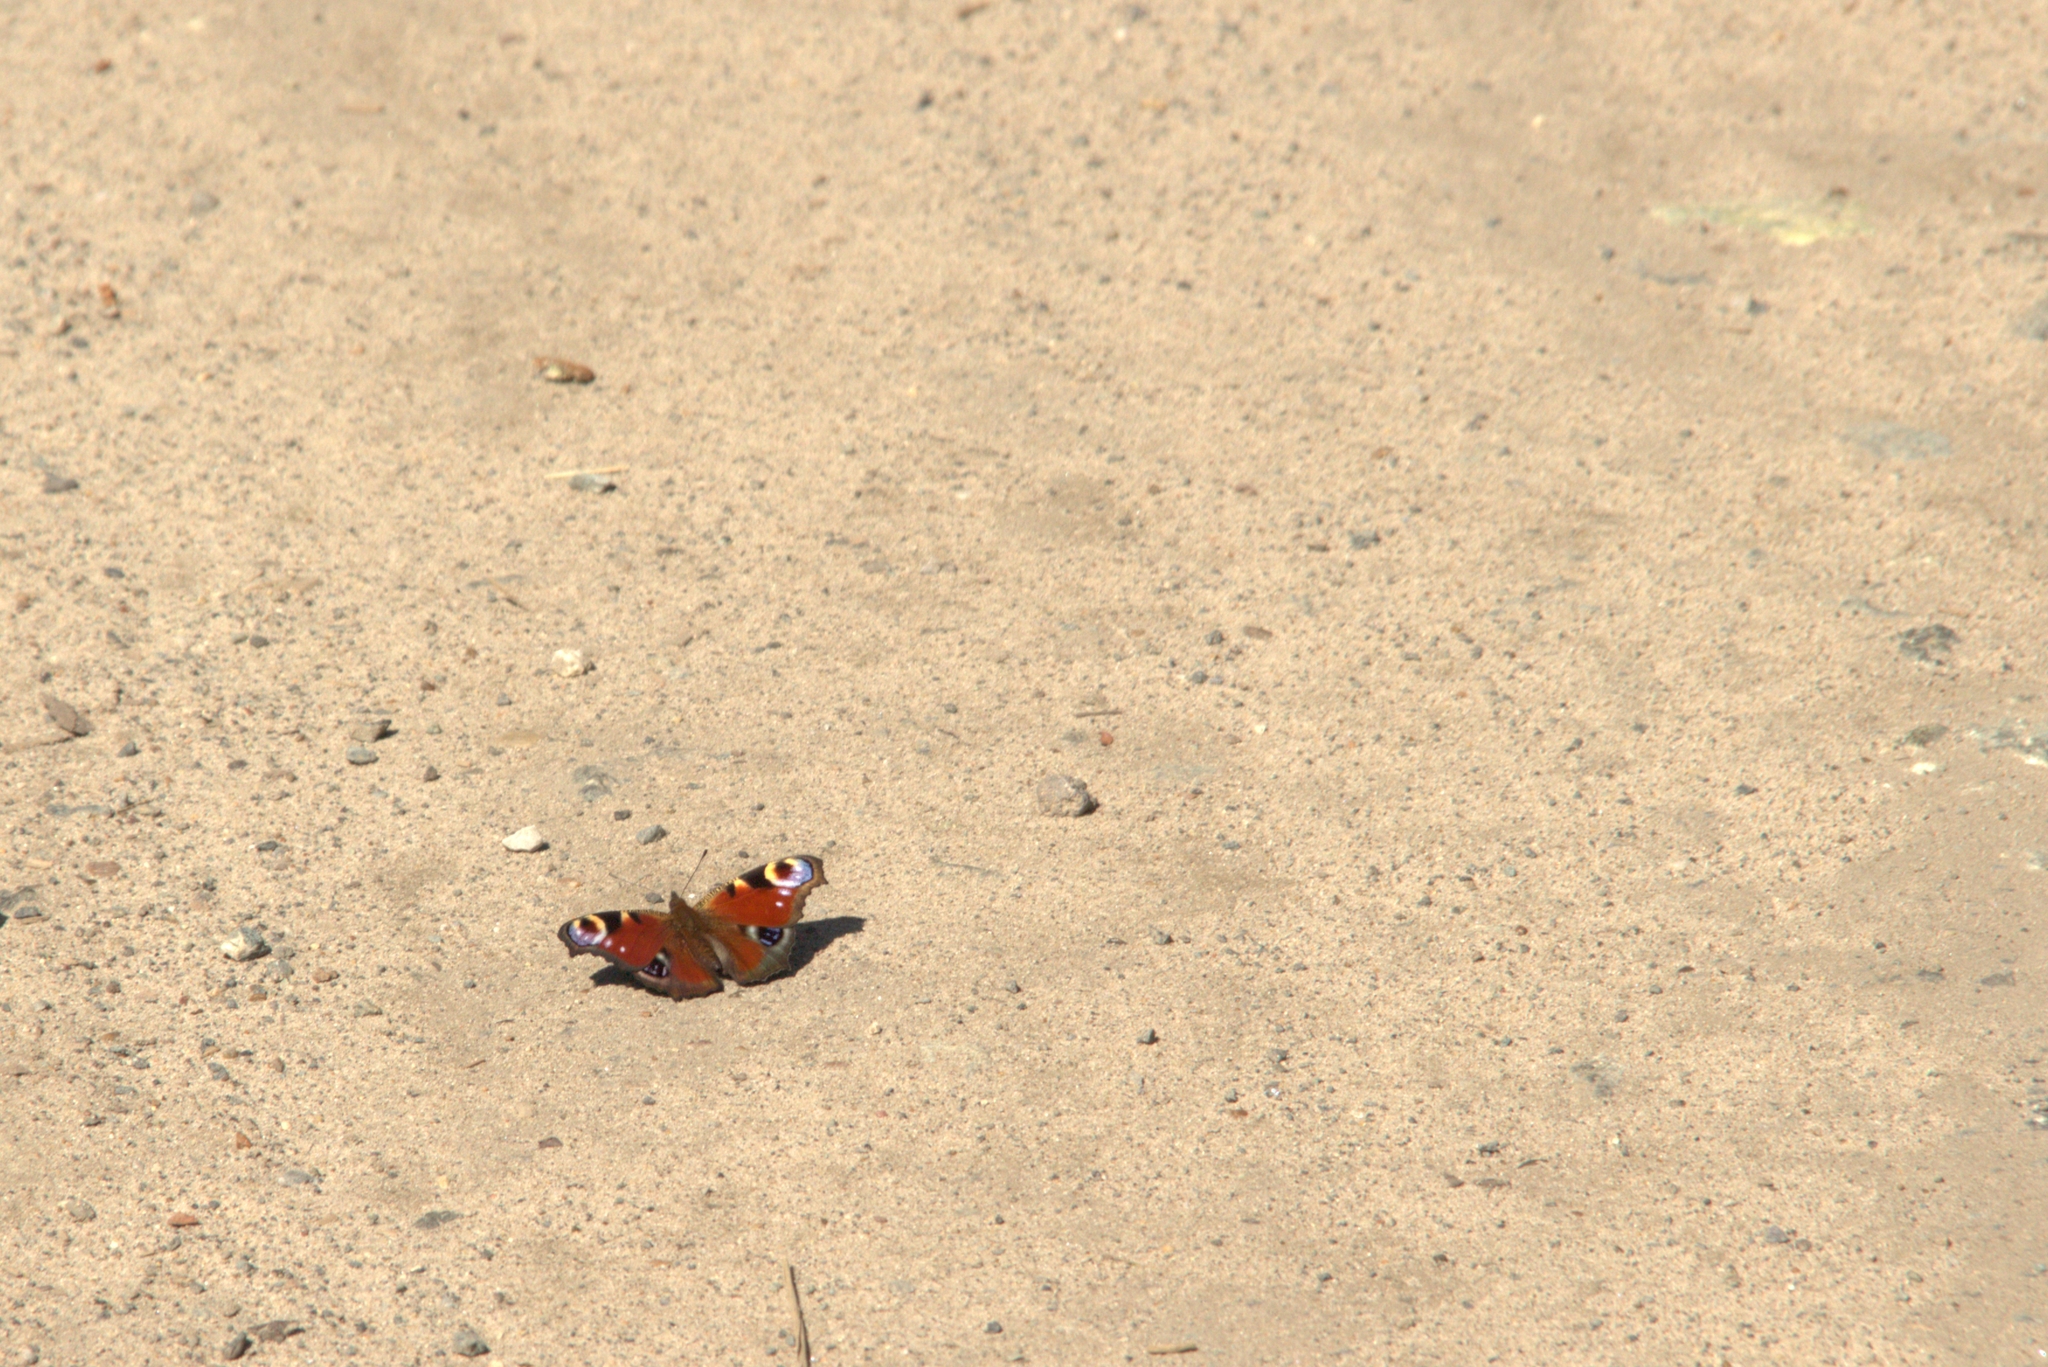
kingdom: Animalia
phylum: Arthropoda
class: Insecta
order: Lepidoptera
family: Nymphalidae
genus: Aglais
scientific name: Aglais io
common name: Peacock
